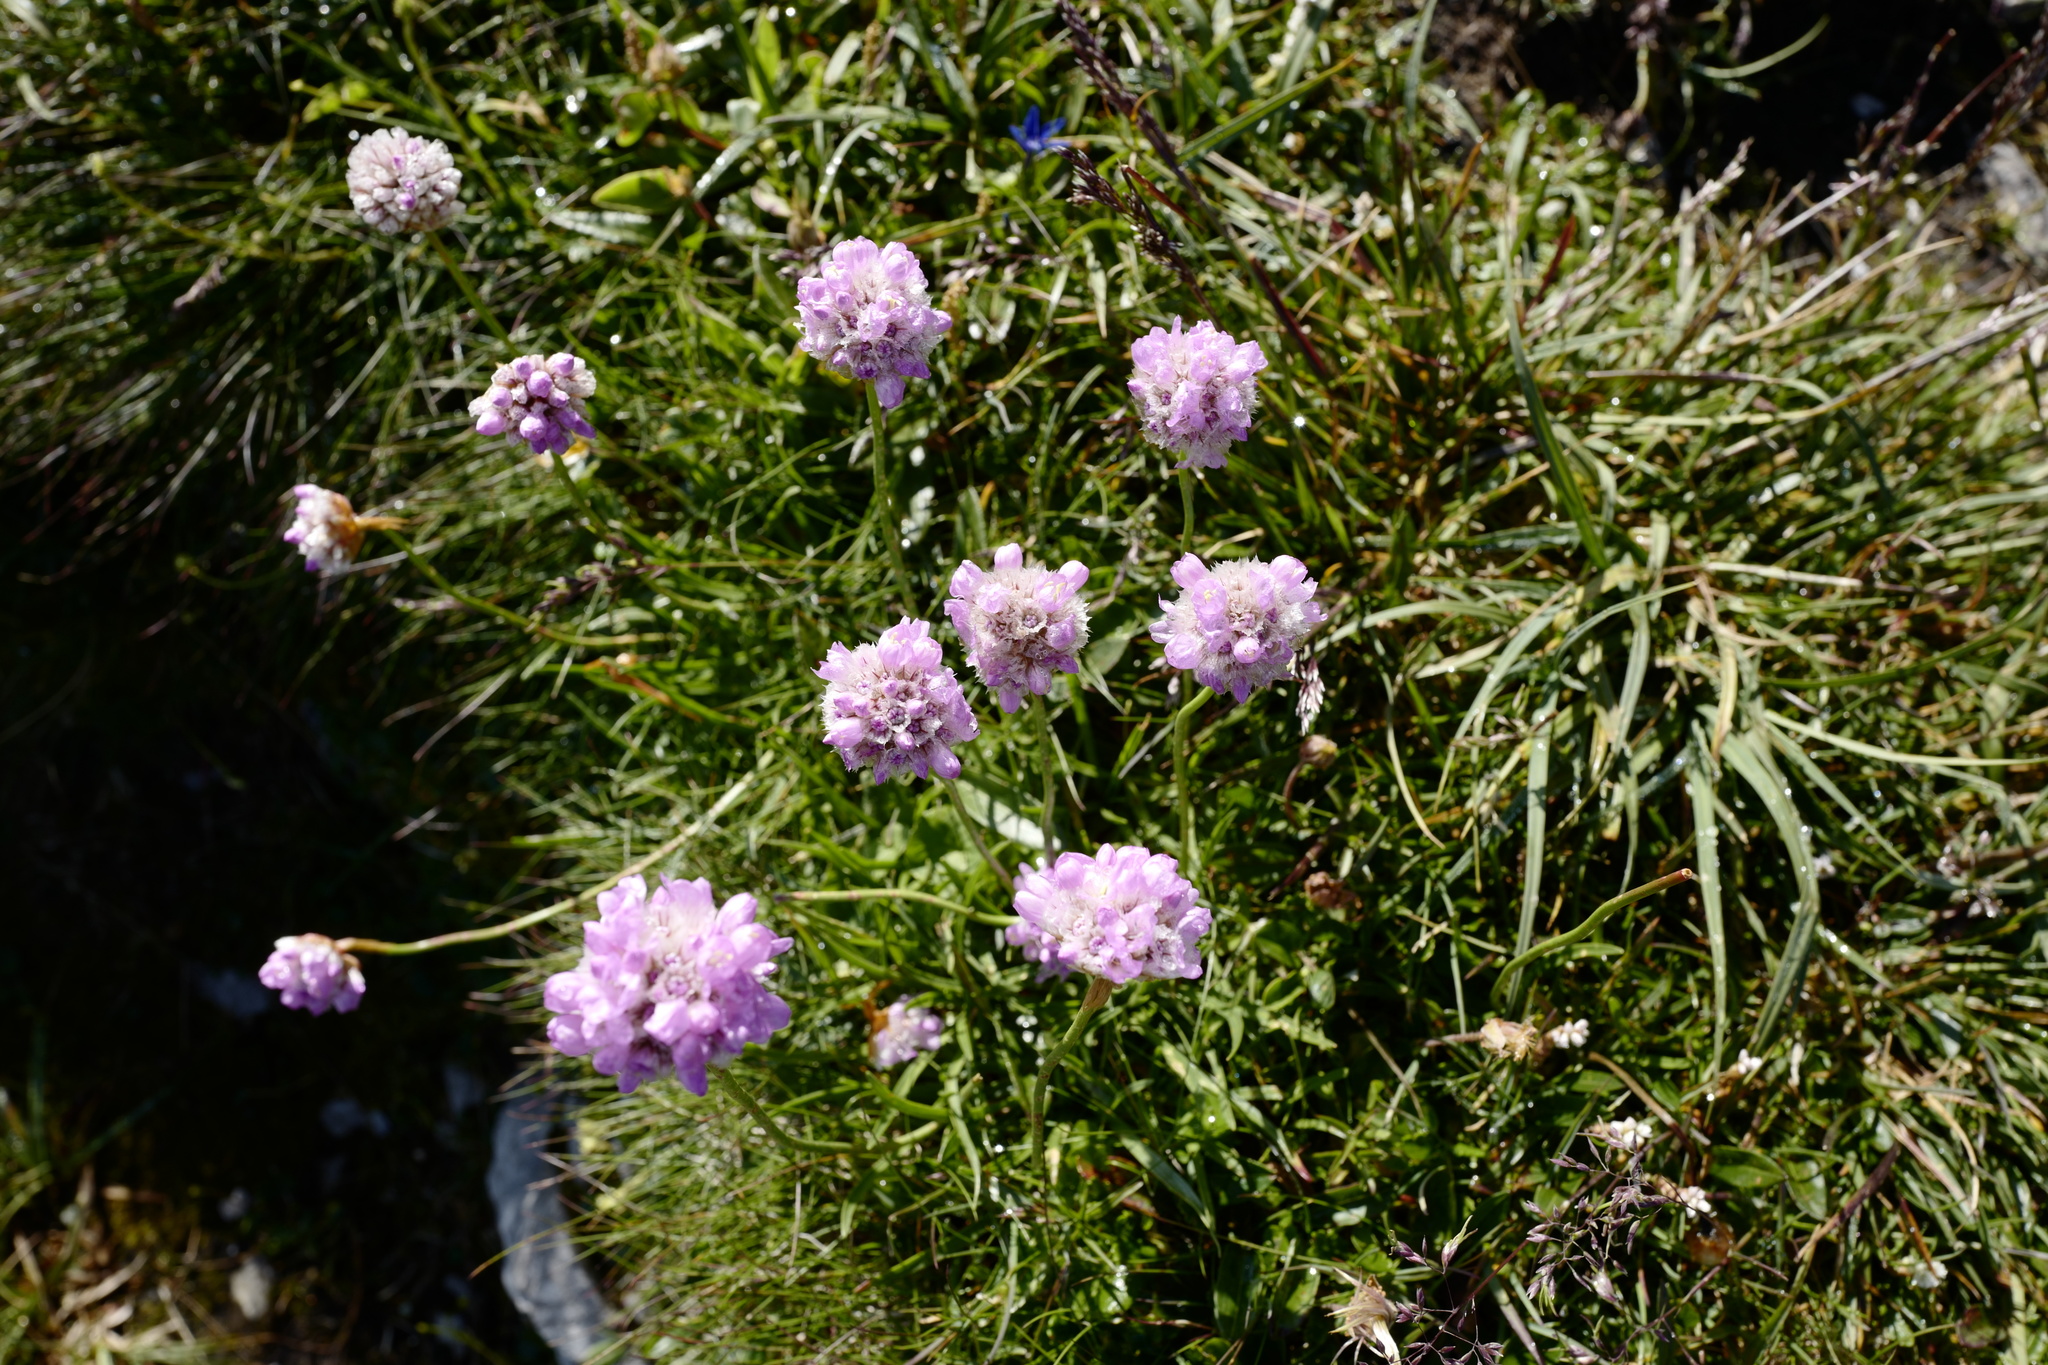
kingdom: Plantae
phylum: Tracheophyta
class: Magnoliopsida
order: Caryophyllales
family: Plumbaginaceae
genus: Armeria
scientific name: Armeria alpina
